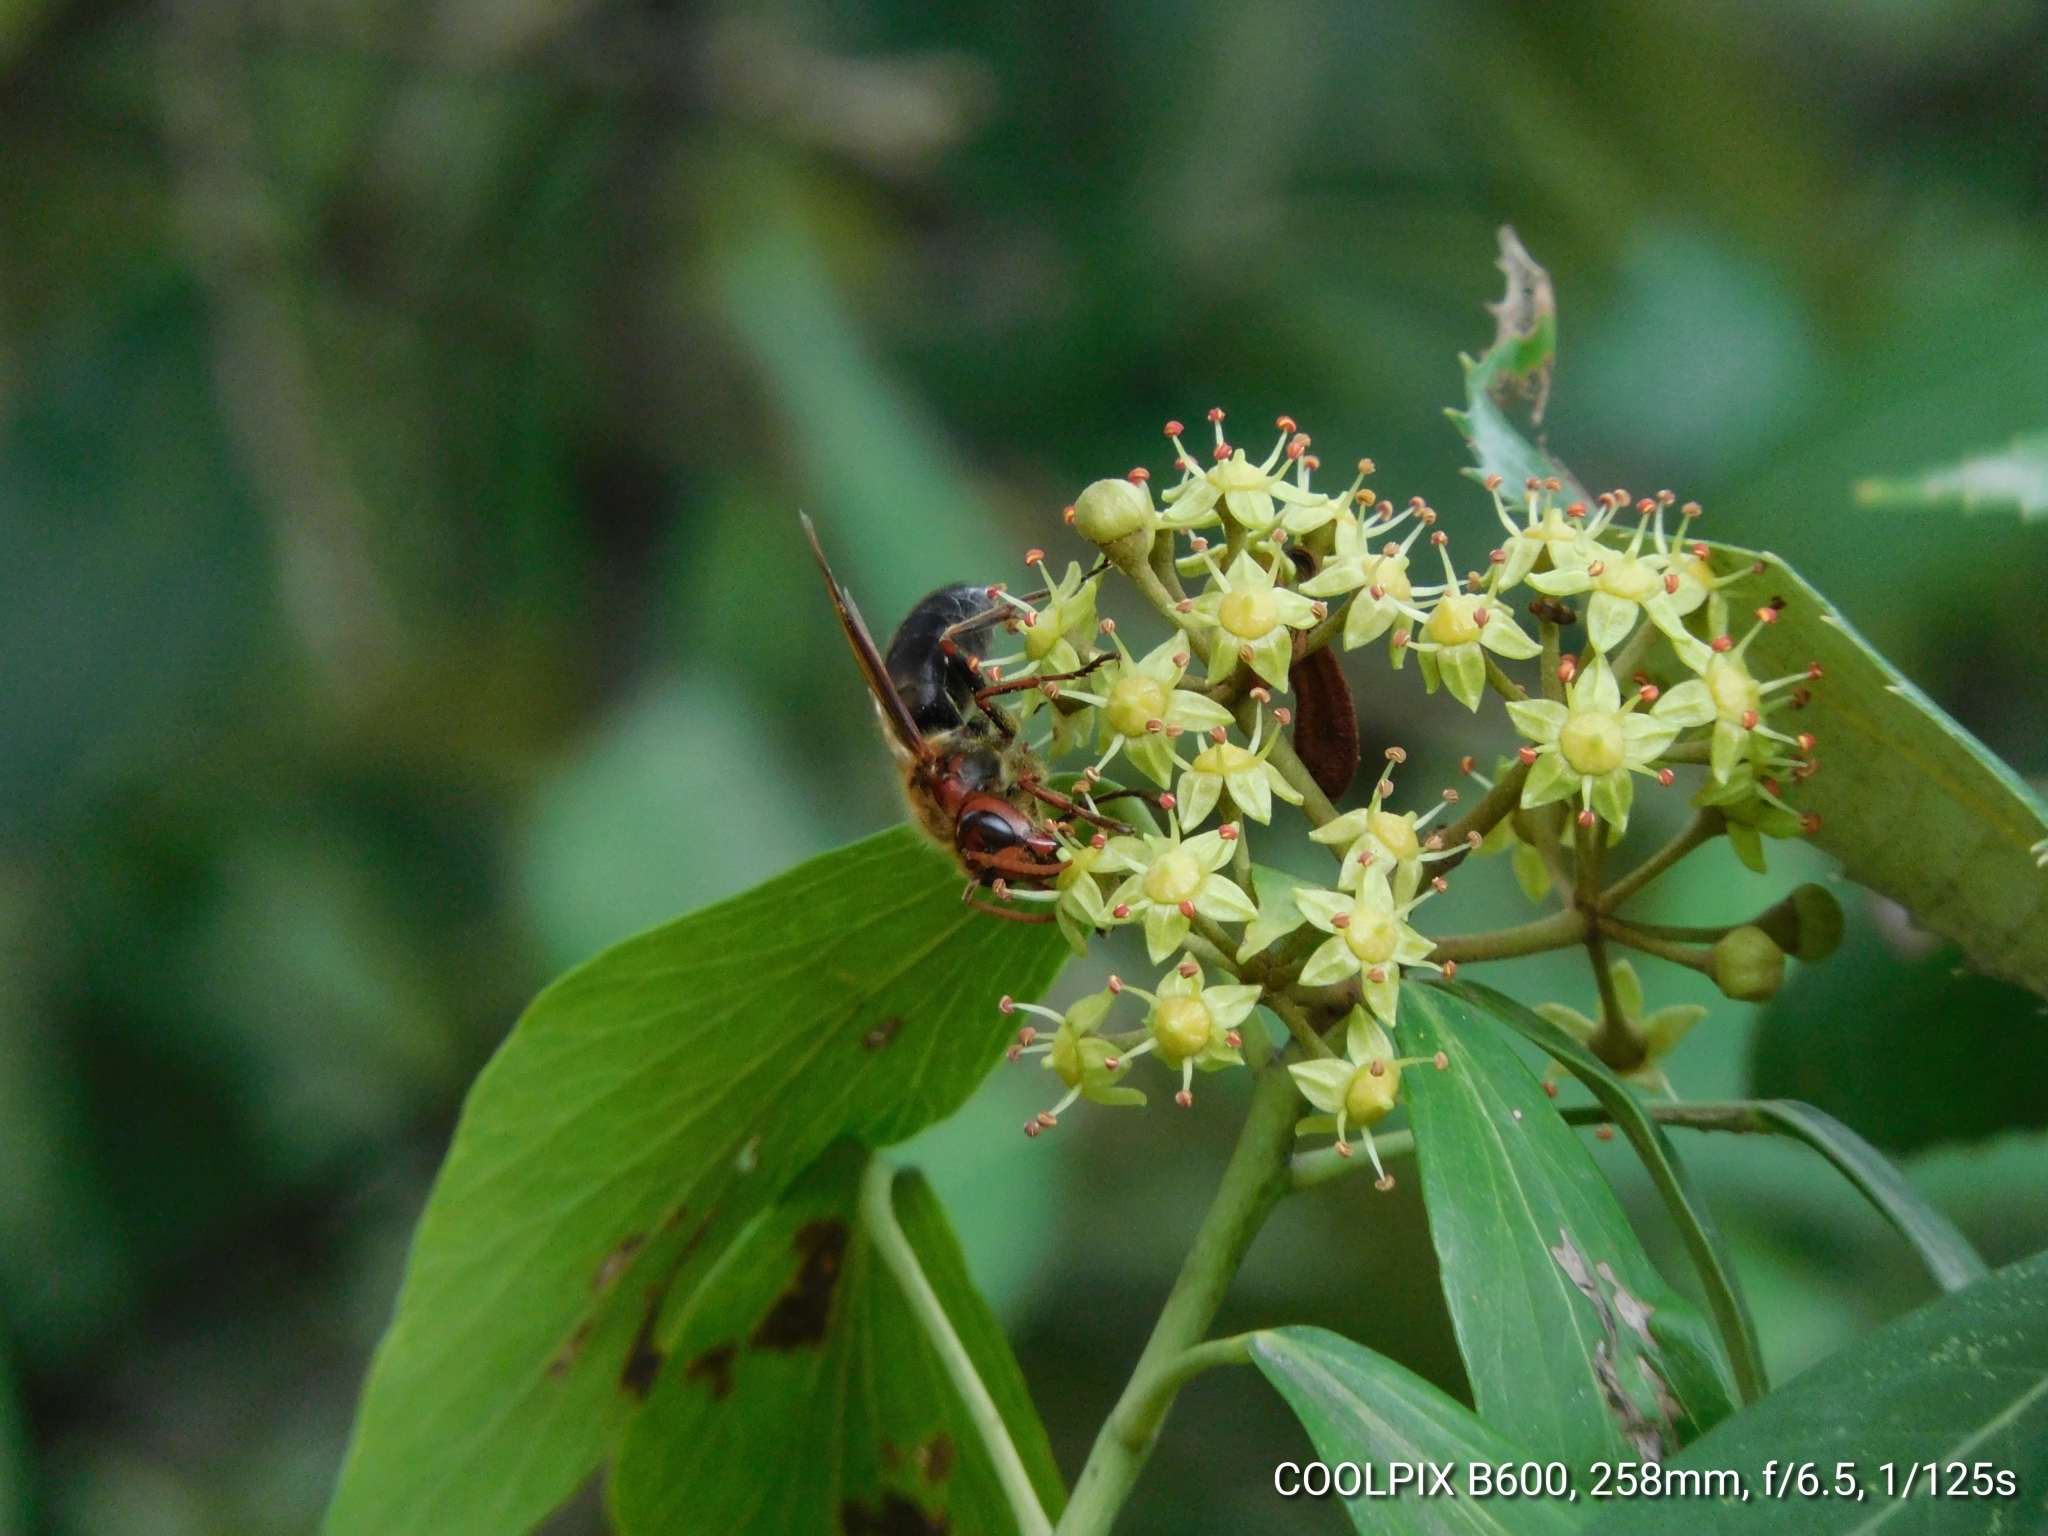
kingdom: Animalia
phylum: Arthropoda
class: Insecta
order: Hymenoptera
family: Vespidae
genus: Vespa
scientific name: Vespa basalis
